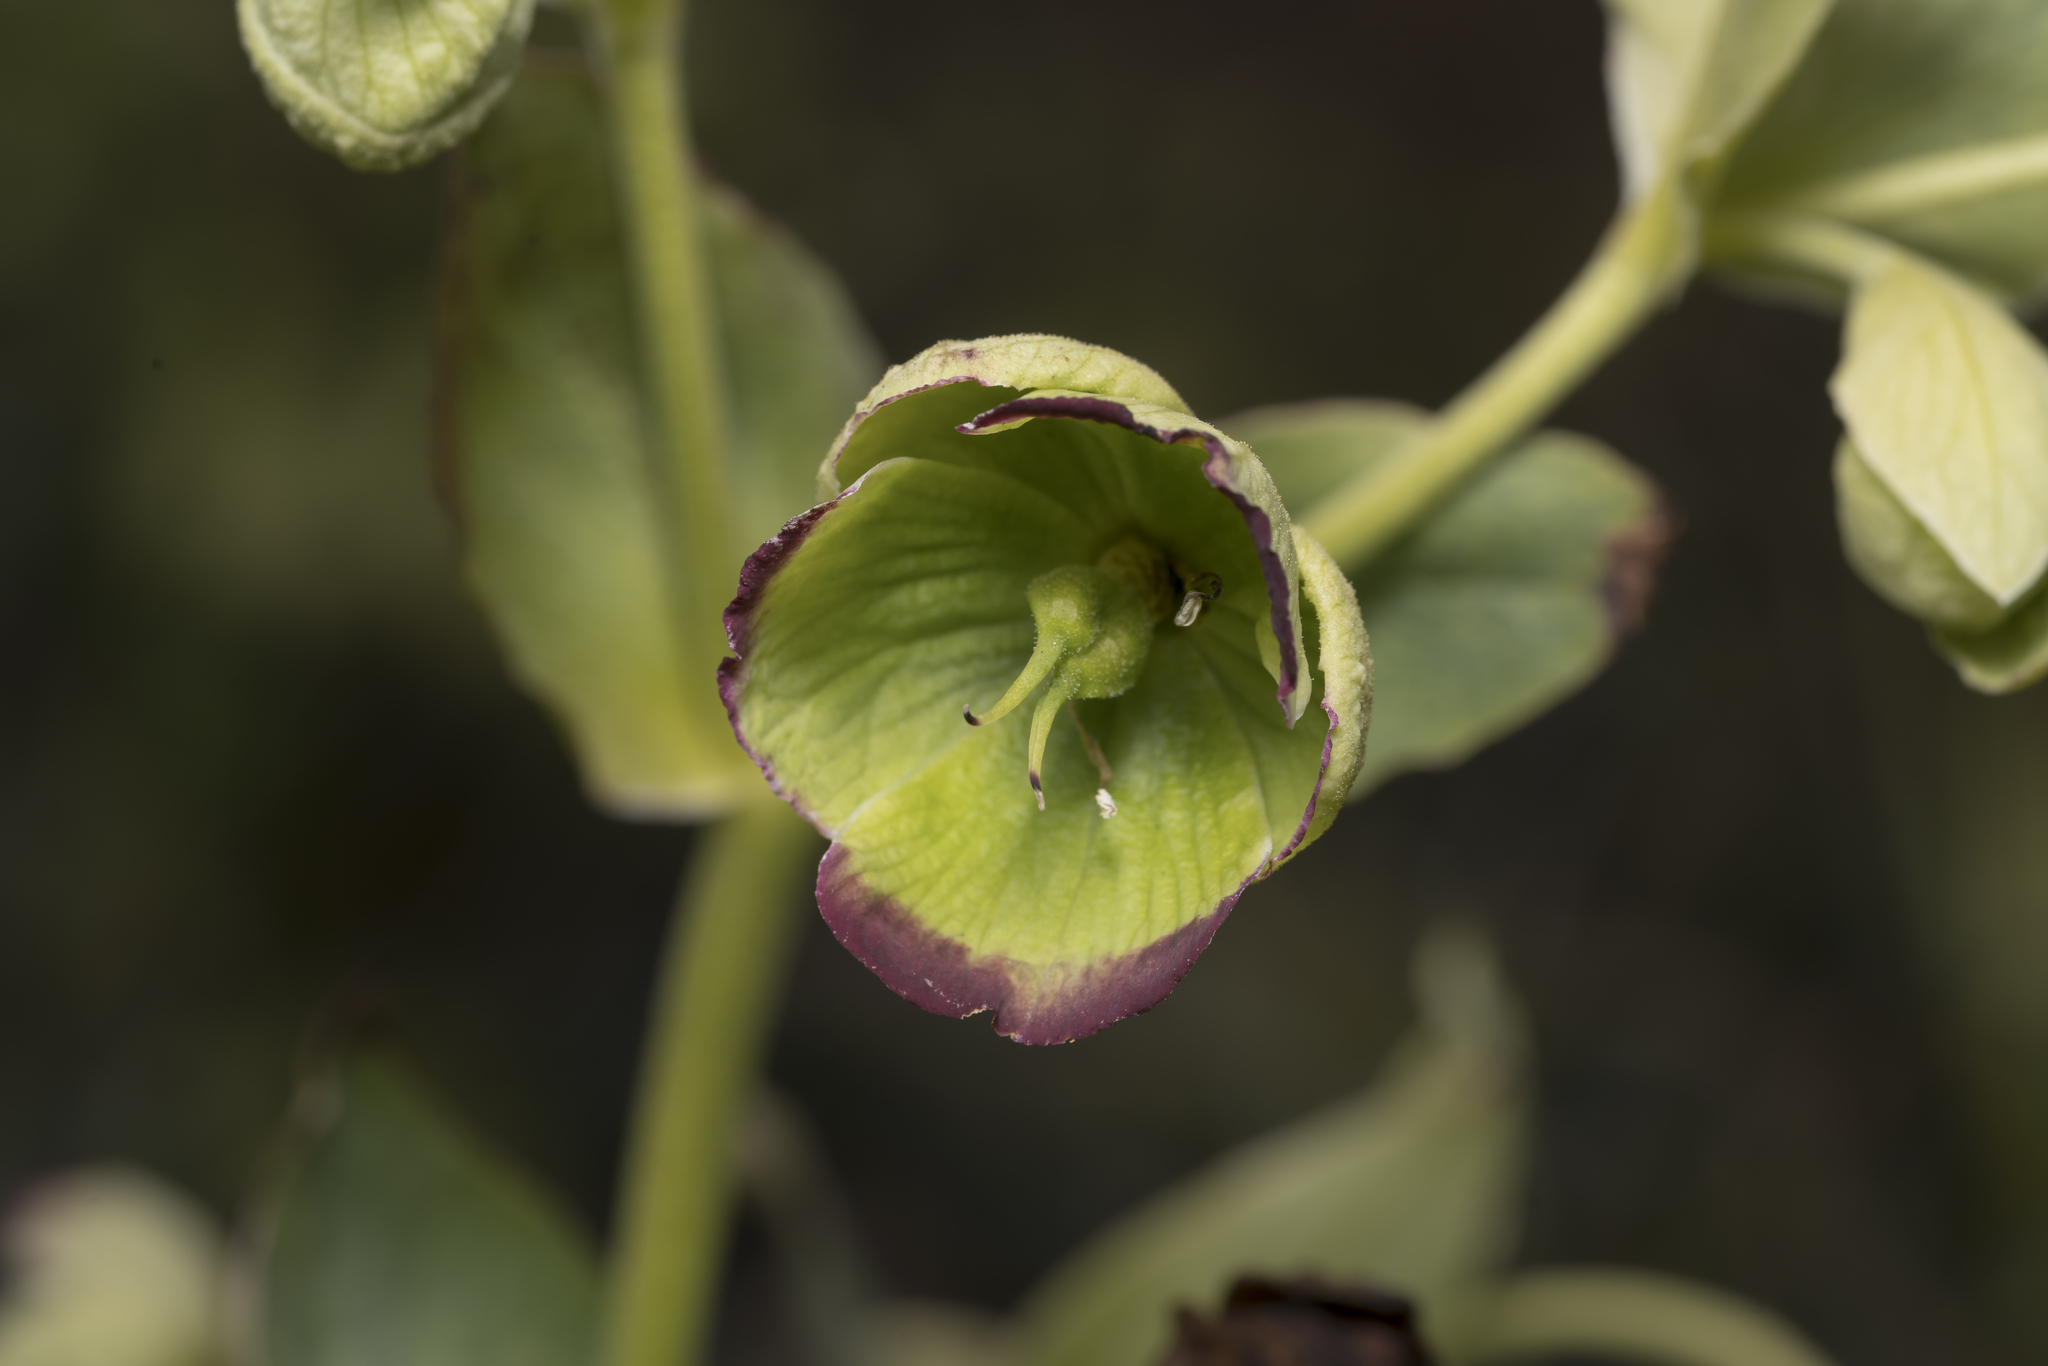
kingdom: Plantae
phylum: Tracheophyta
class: Magnoliopsida
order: Ranunculales
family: Ranunculaceae
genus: Helleborus
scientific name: Helleborus foetidus
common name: Stinking hellebore
